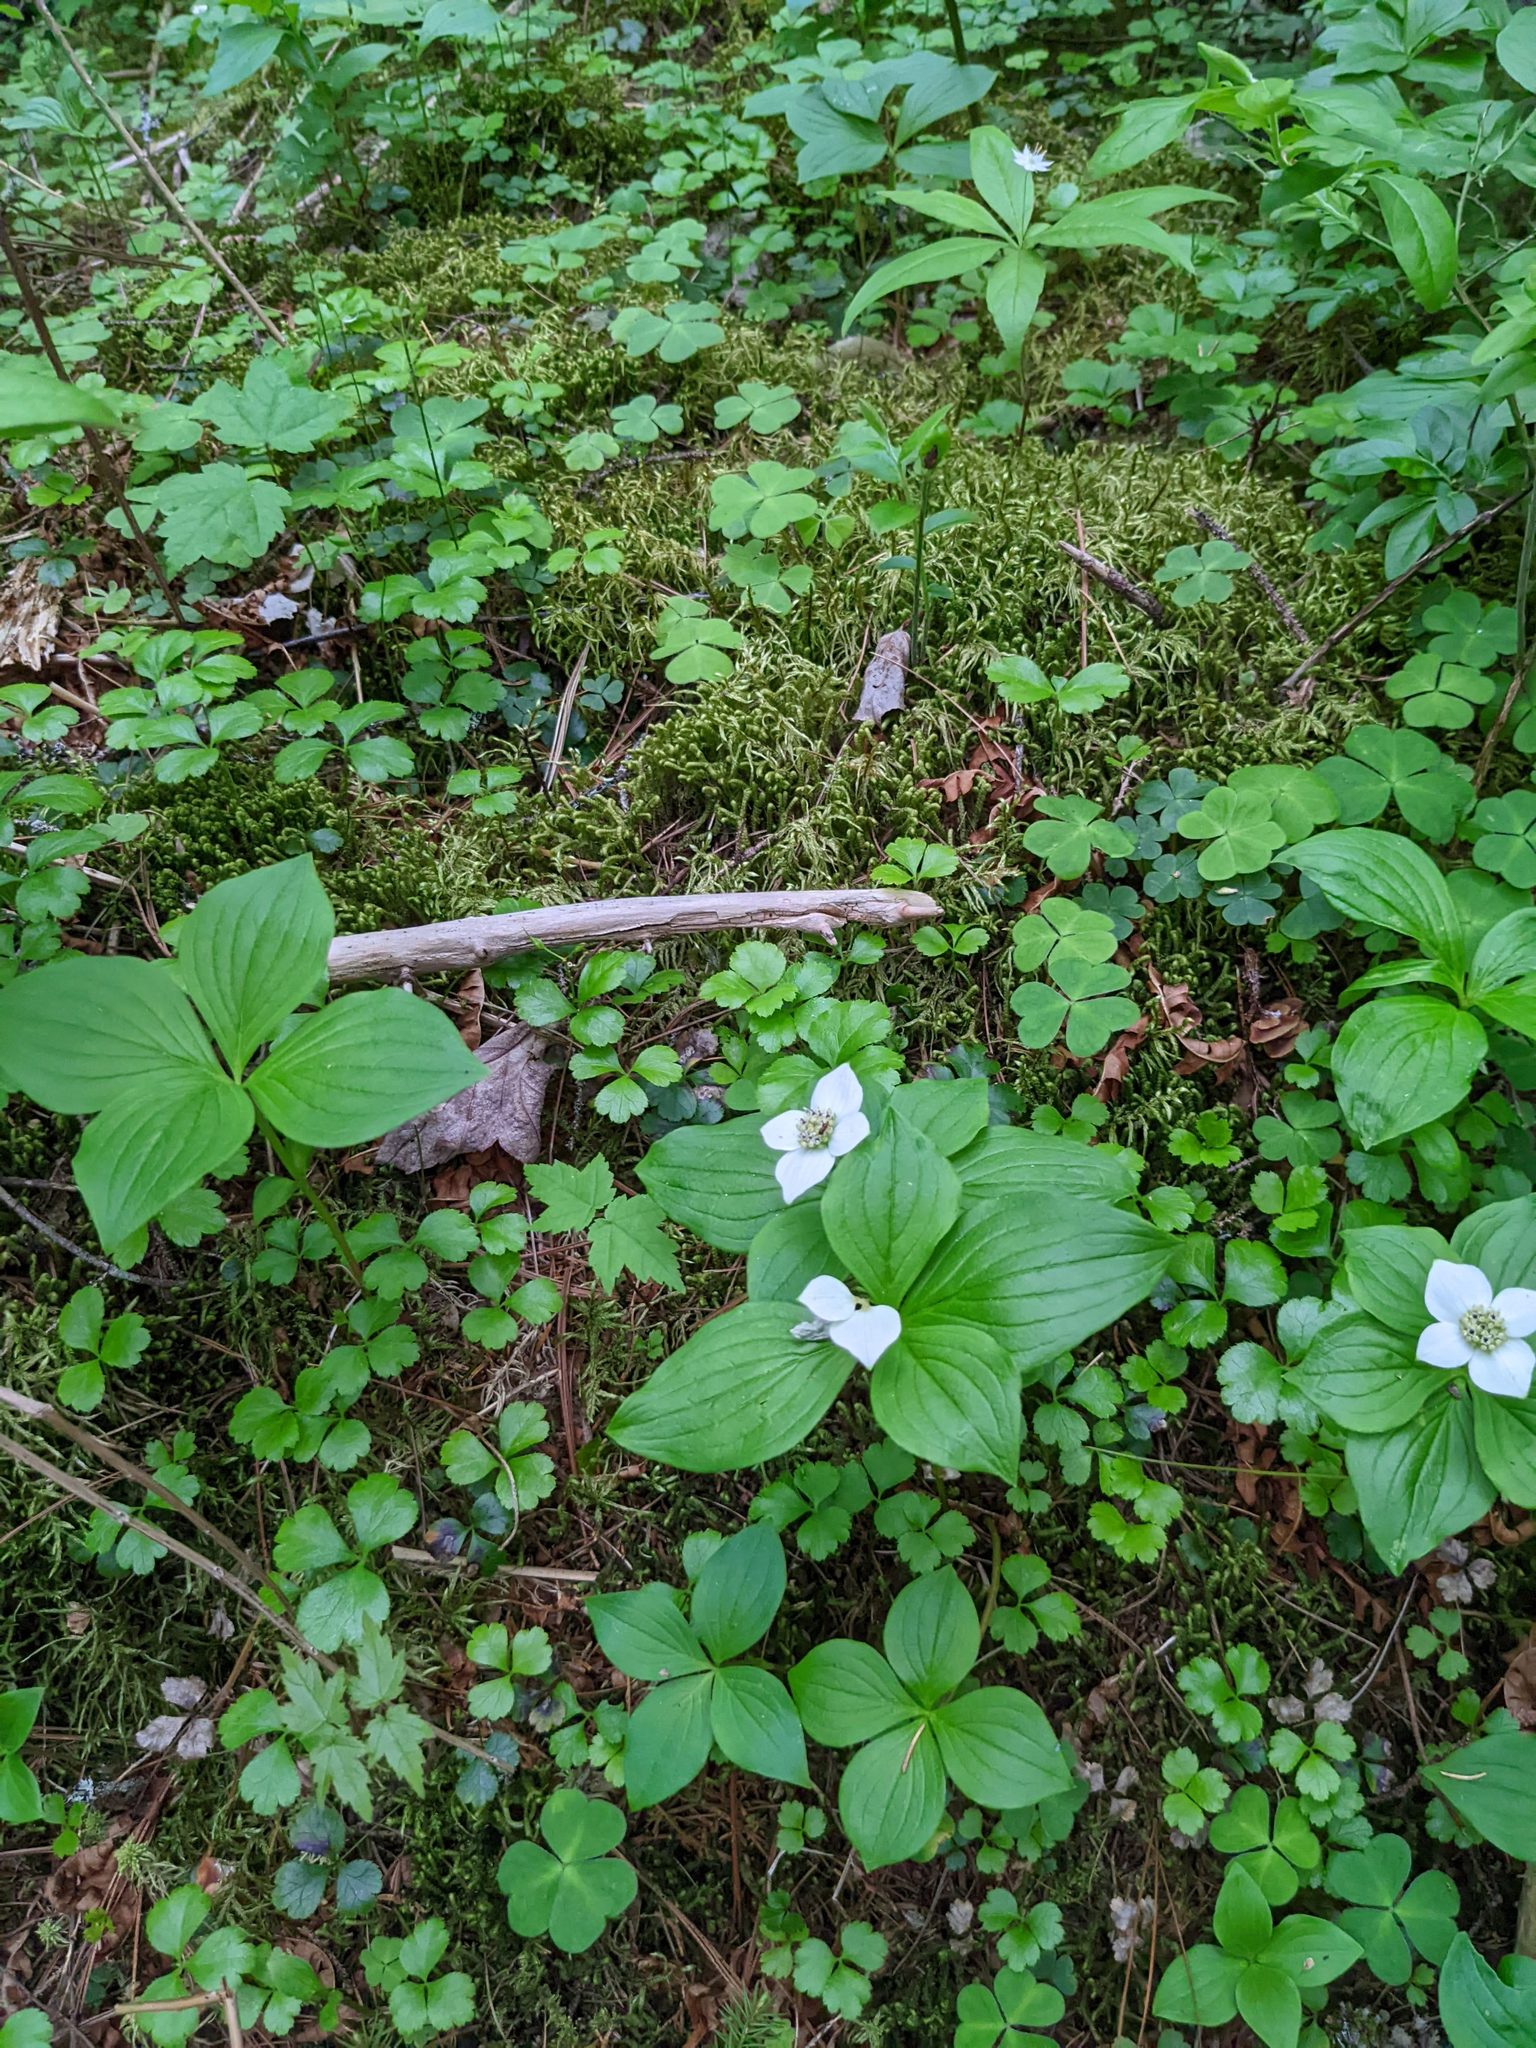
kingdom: Plantae
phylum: Tracheophyta
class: Magnoliopsida
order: Cornales
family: Cornaceae
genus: Cornus
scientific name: Cornus canadensis
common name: Creeping dogwood
